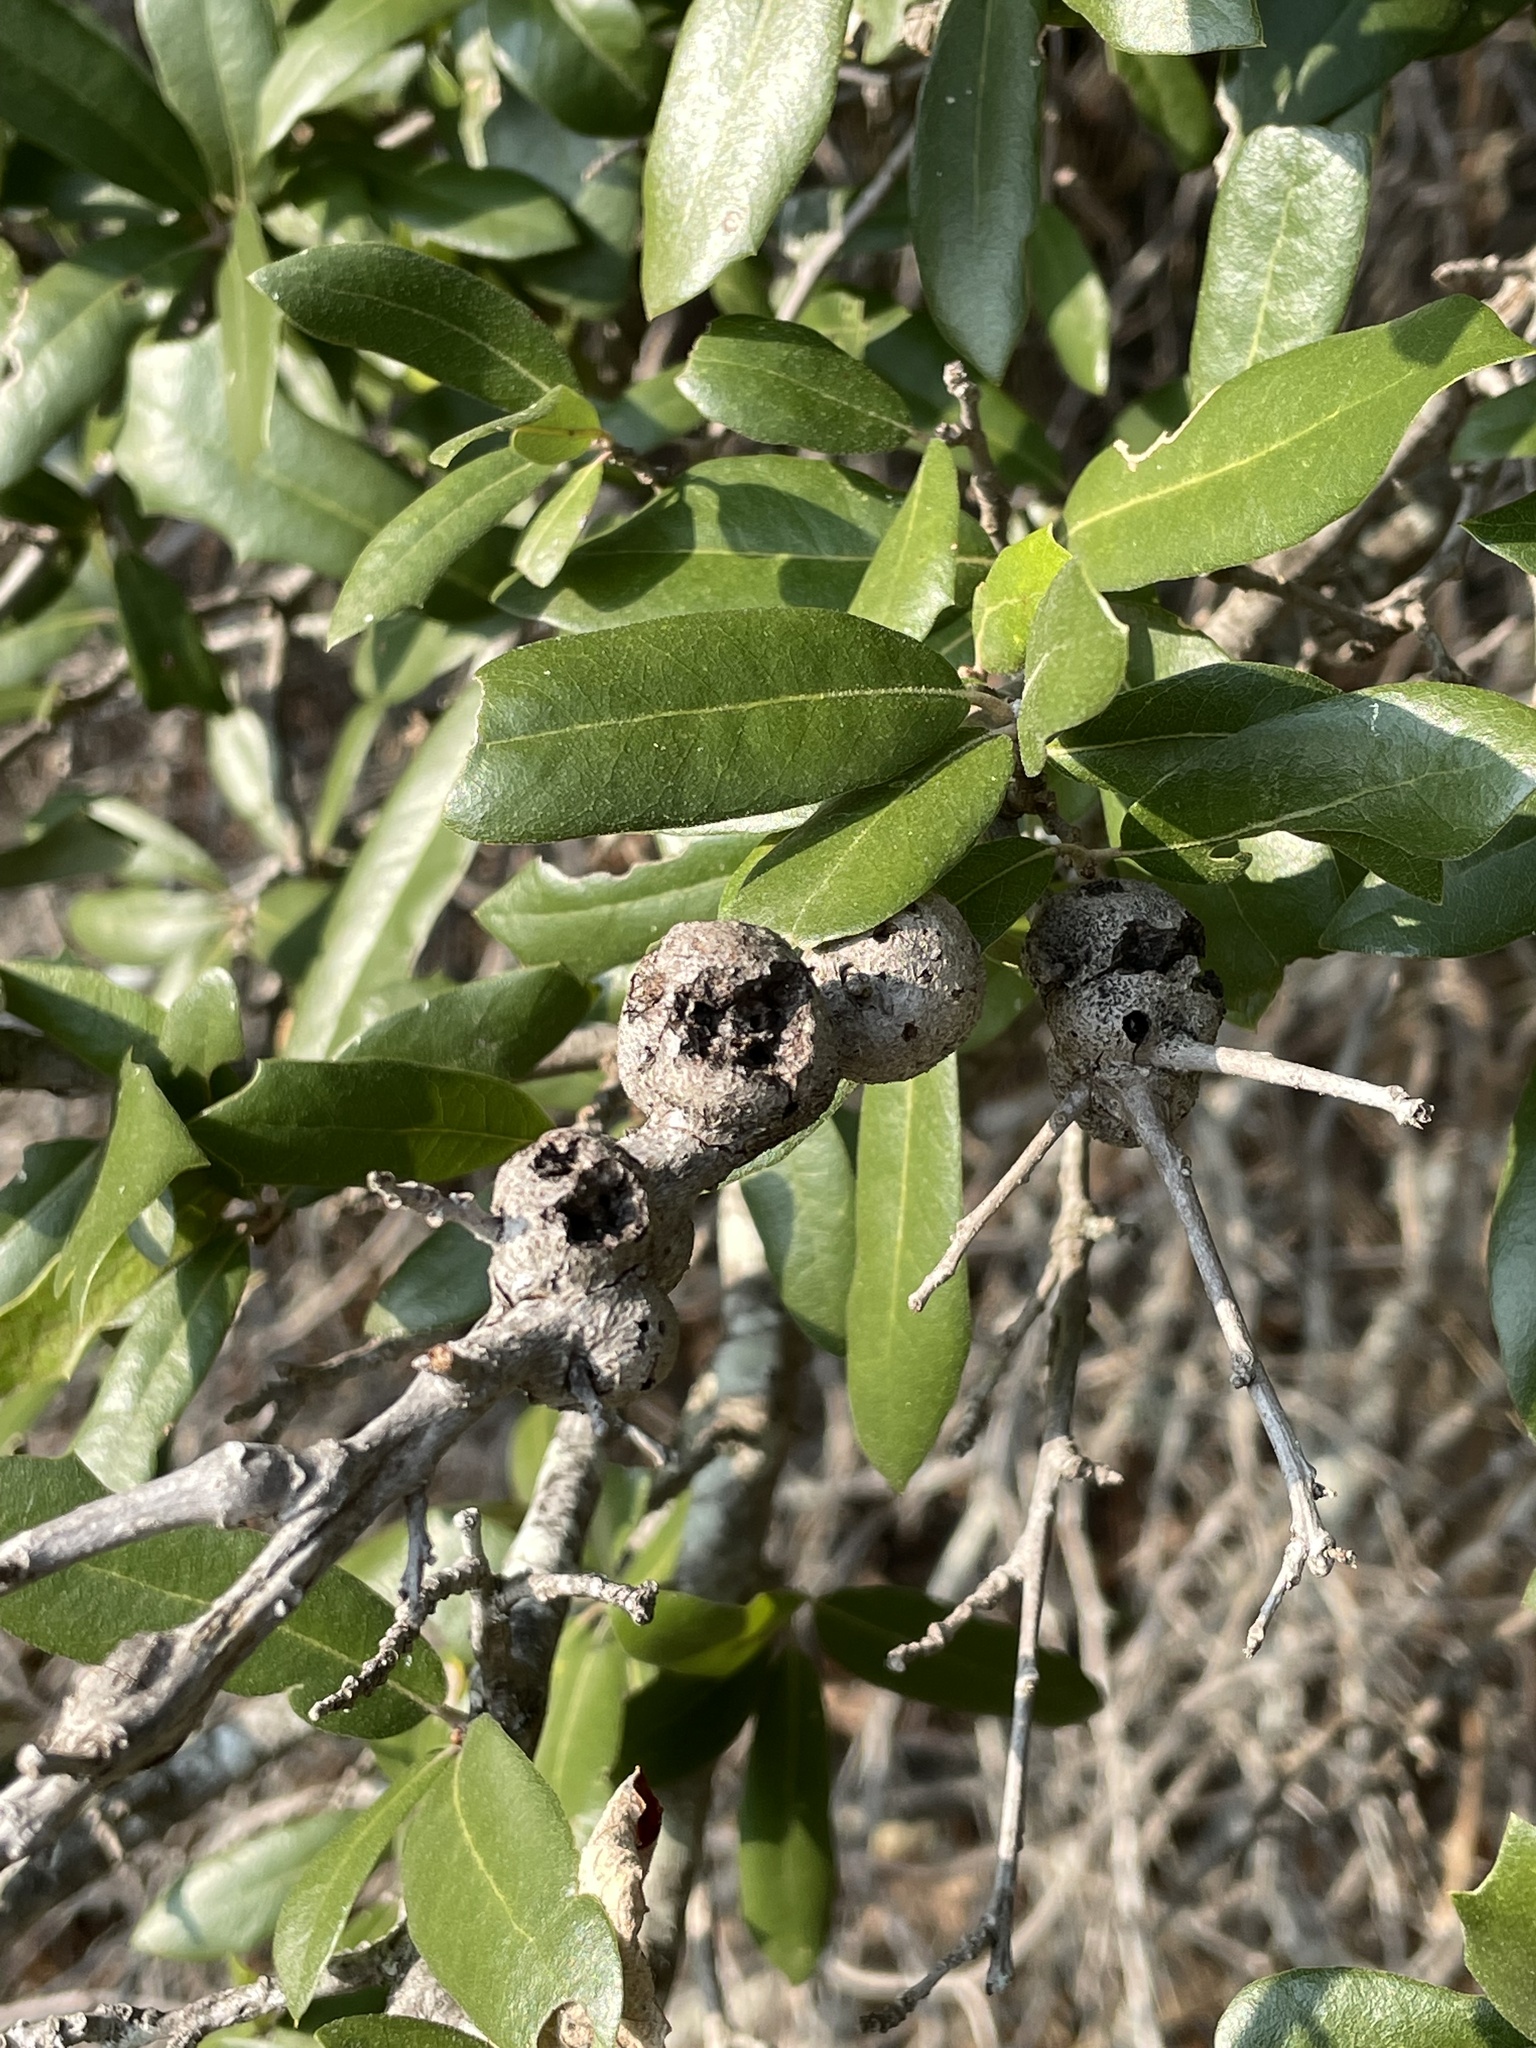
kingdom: Animalia
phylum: Arthropoda
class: Insecta
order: Hymenoptera
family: Cynipidae
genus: Callirhytis
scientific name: Callirhytis
